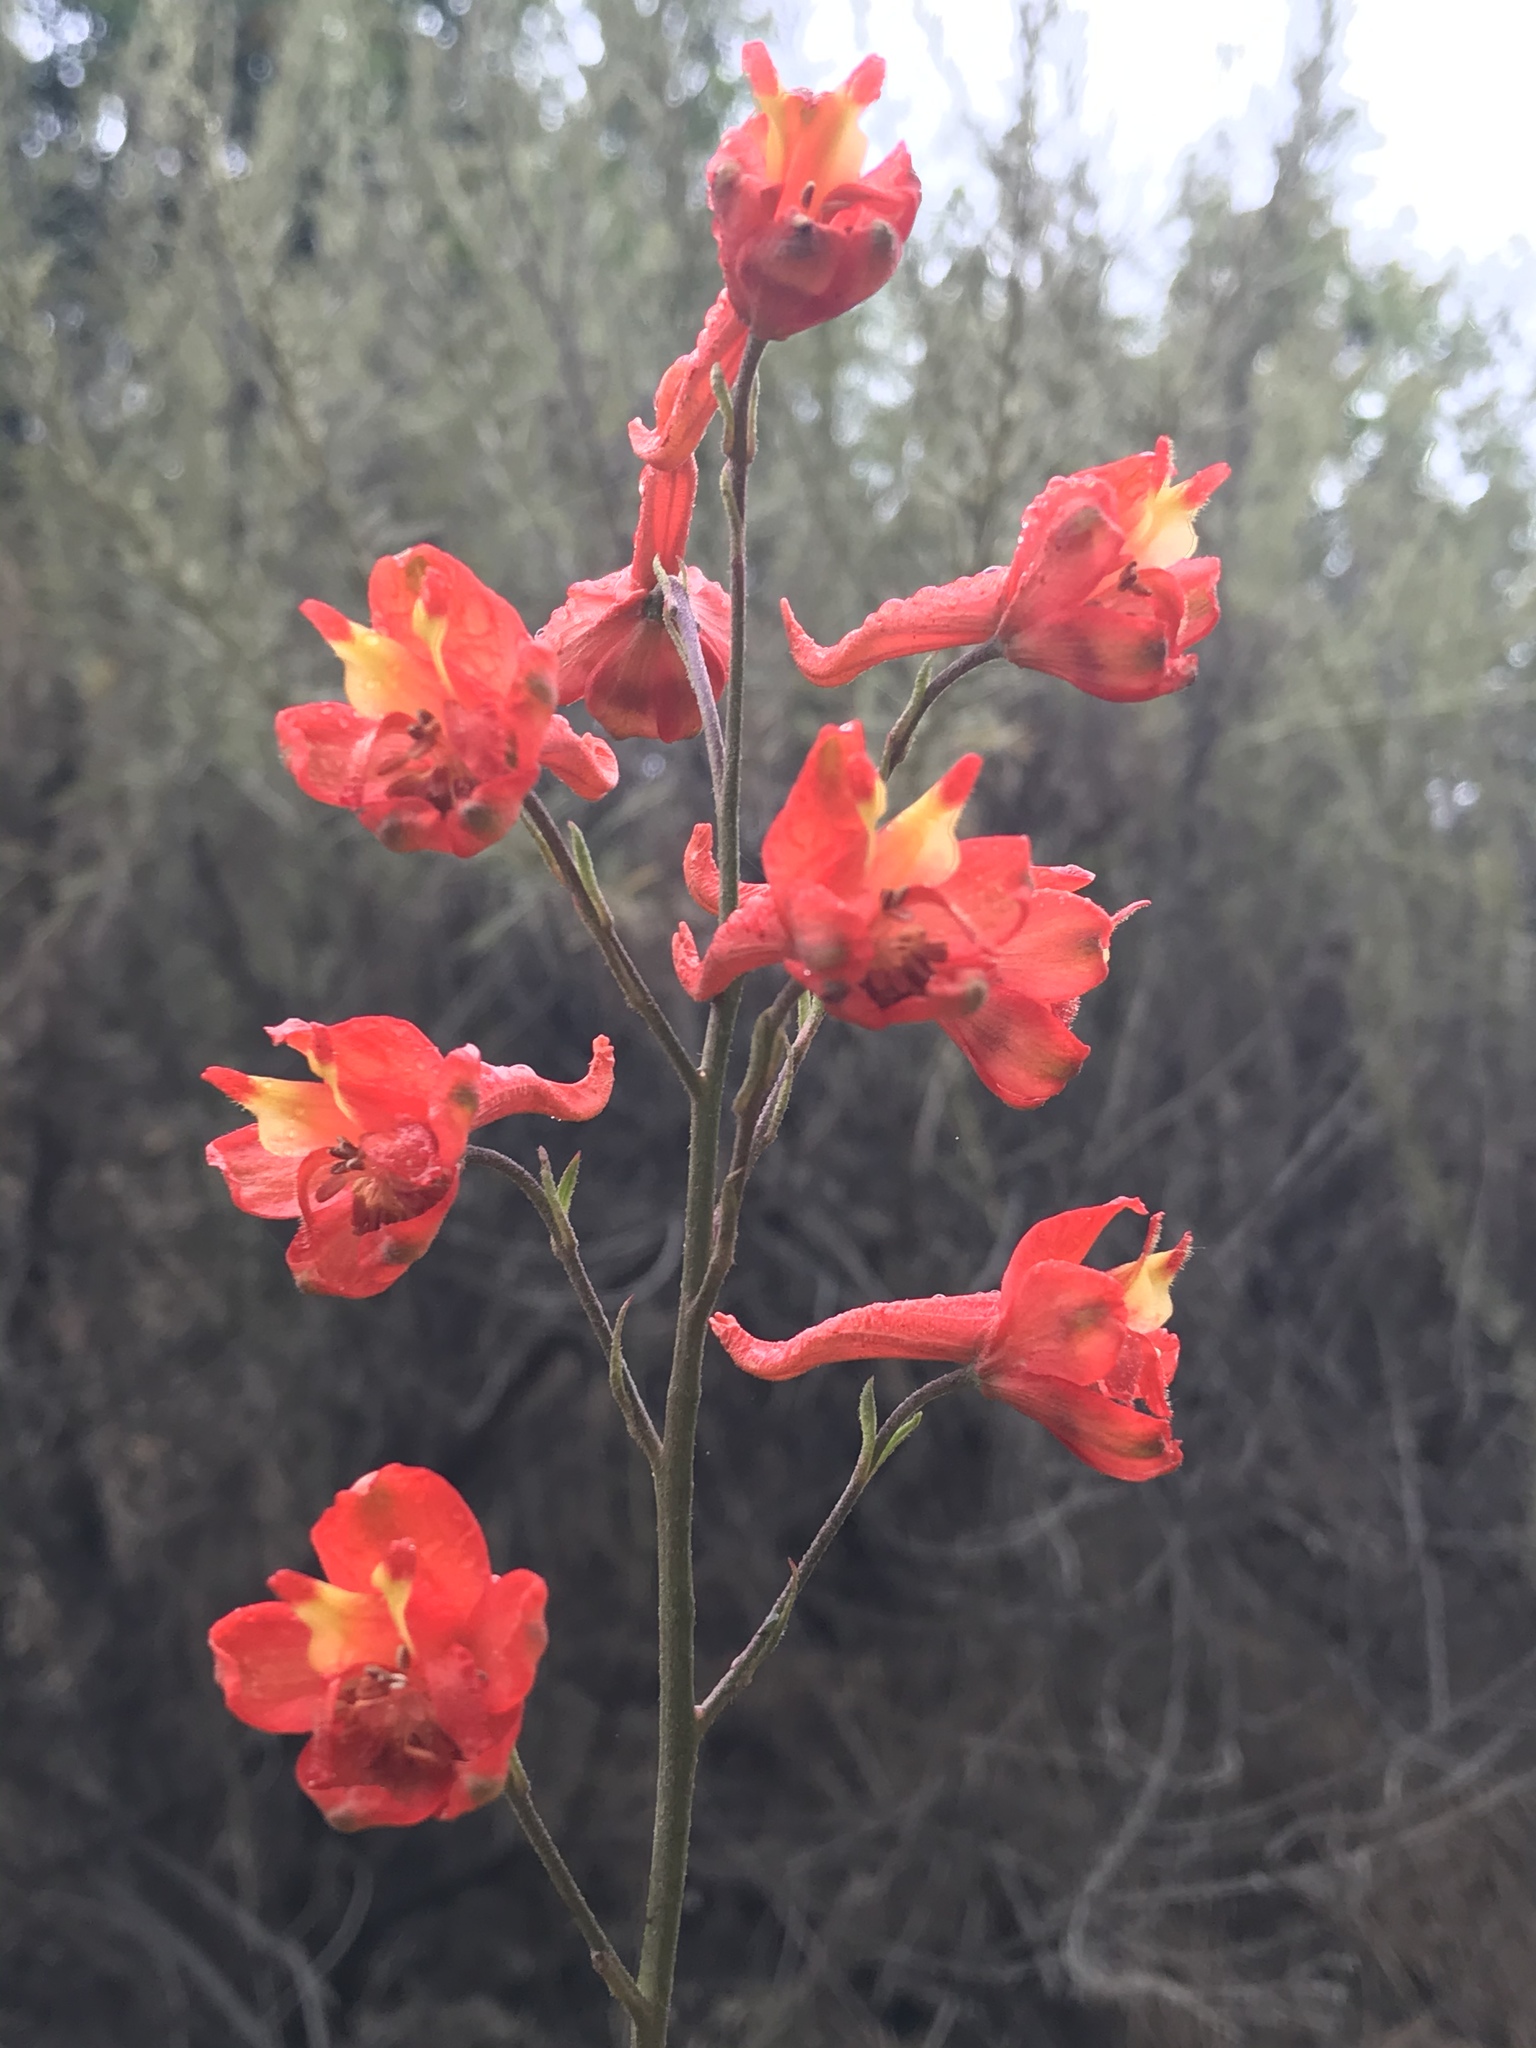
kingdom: Plantae
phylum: Tracheophyta
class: Magnoliopsida
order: Ranunculales
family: Ranunculaceae
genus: Delphinium
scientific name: Delphinium cardinale
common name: Scarlet larkspur
